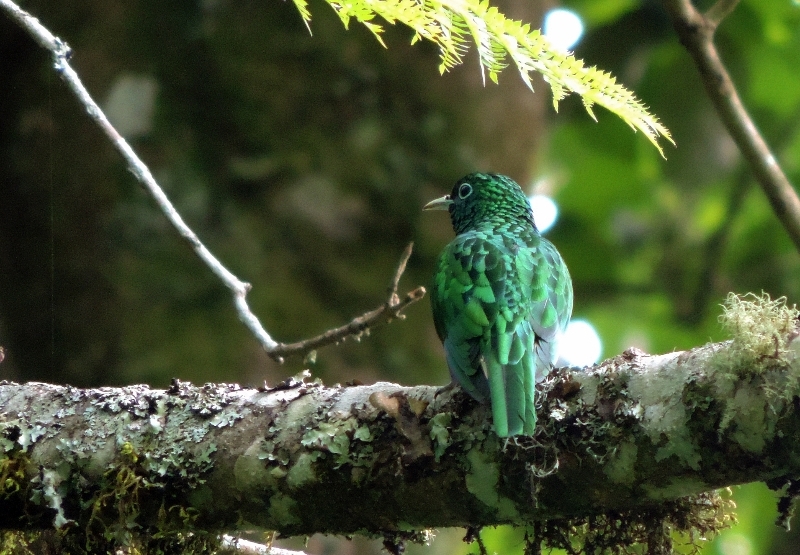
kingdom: Animalia
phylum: Chordata
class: Aves
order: Cuculiformes
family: Cuculidae
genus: Chrysococcyx
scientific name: Chrysococcyx cupreus
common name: African emerald cuckoo
